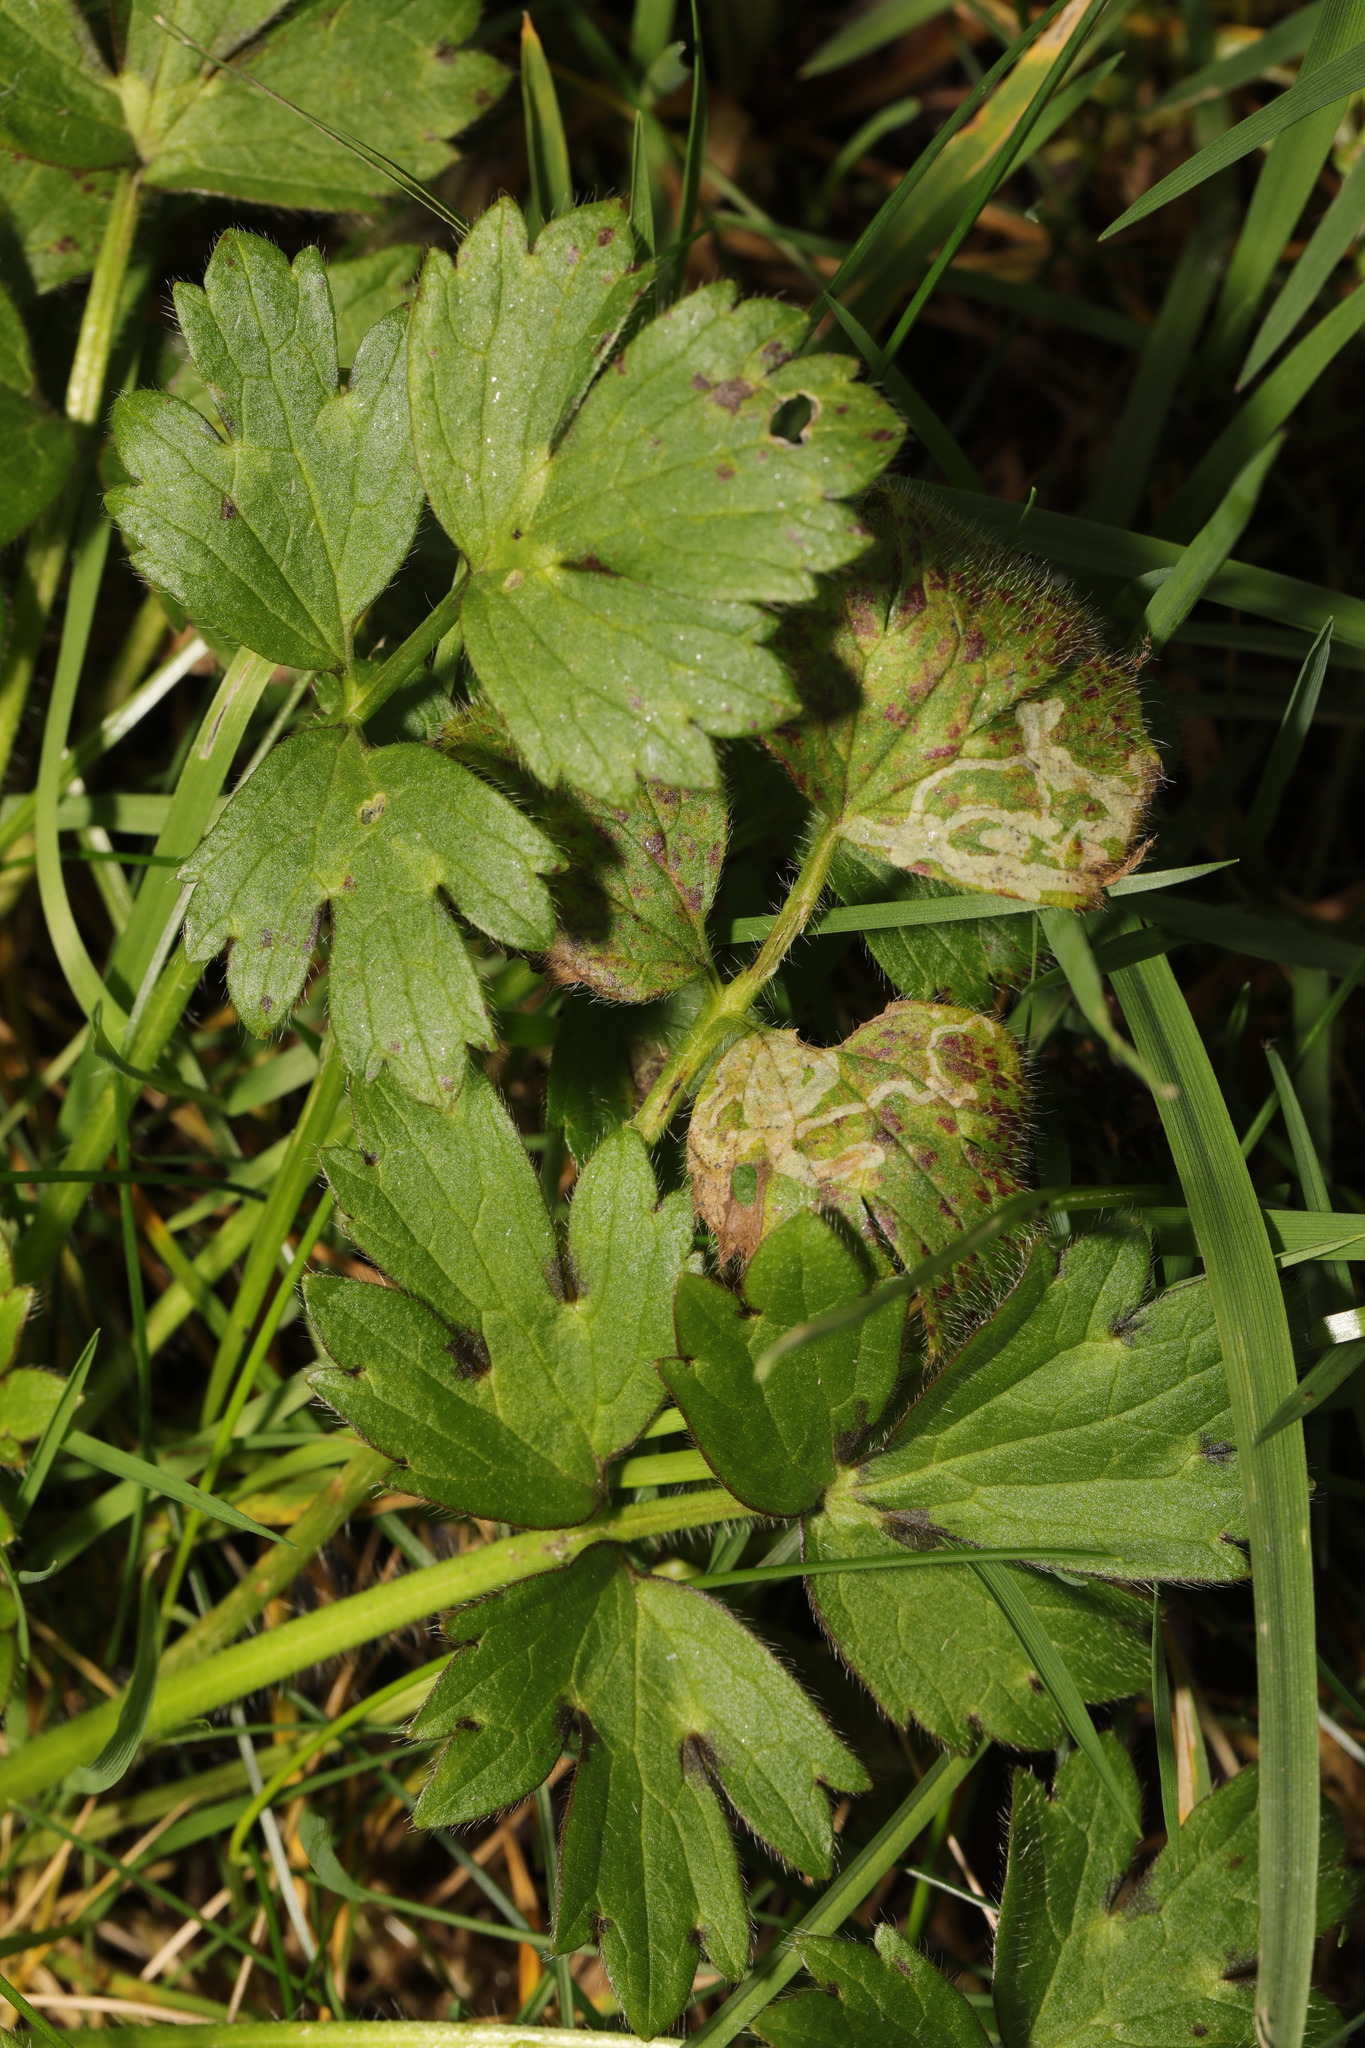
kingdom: Plantae
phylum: Tracheophyta
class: Magnoliopsida
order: Ranunculales
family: Ranunculaceae
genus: Ranunculus
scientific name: Ranunculus repens
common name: Creeping buttercup
